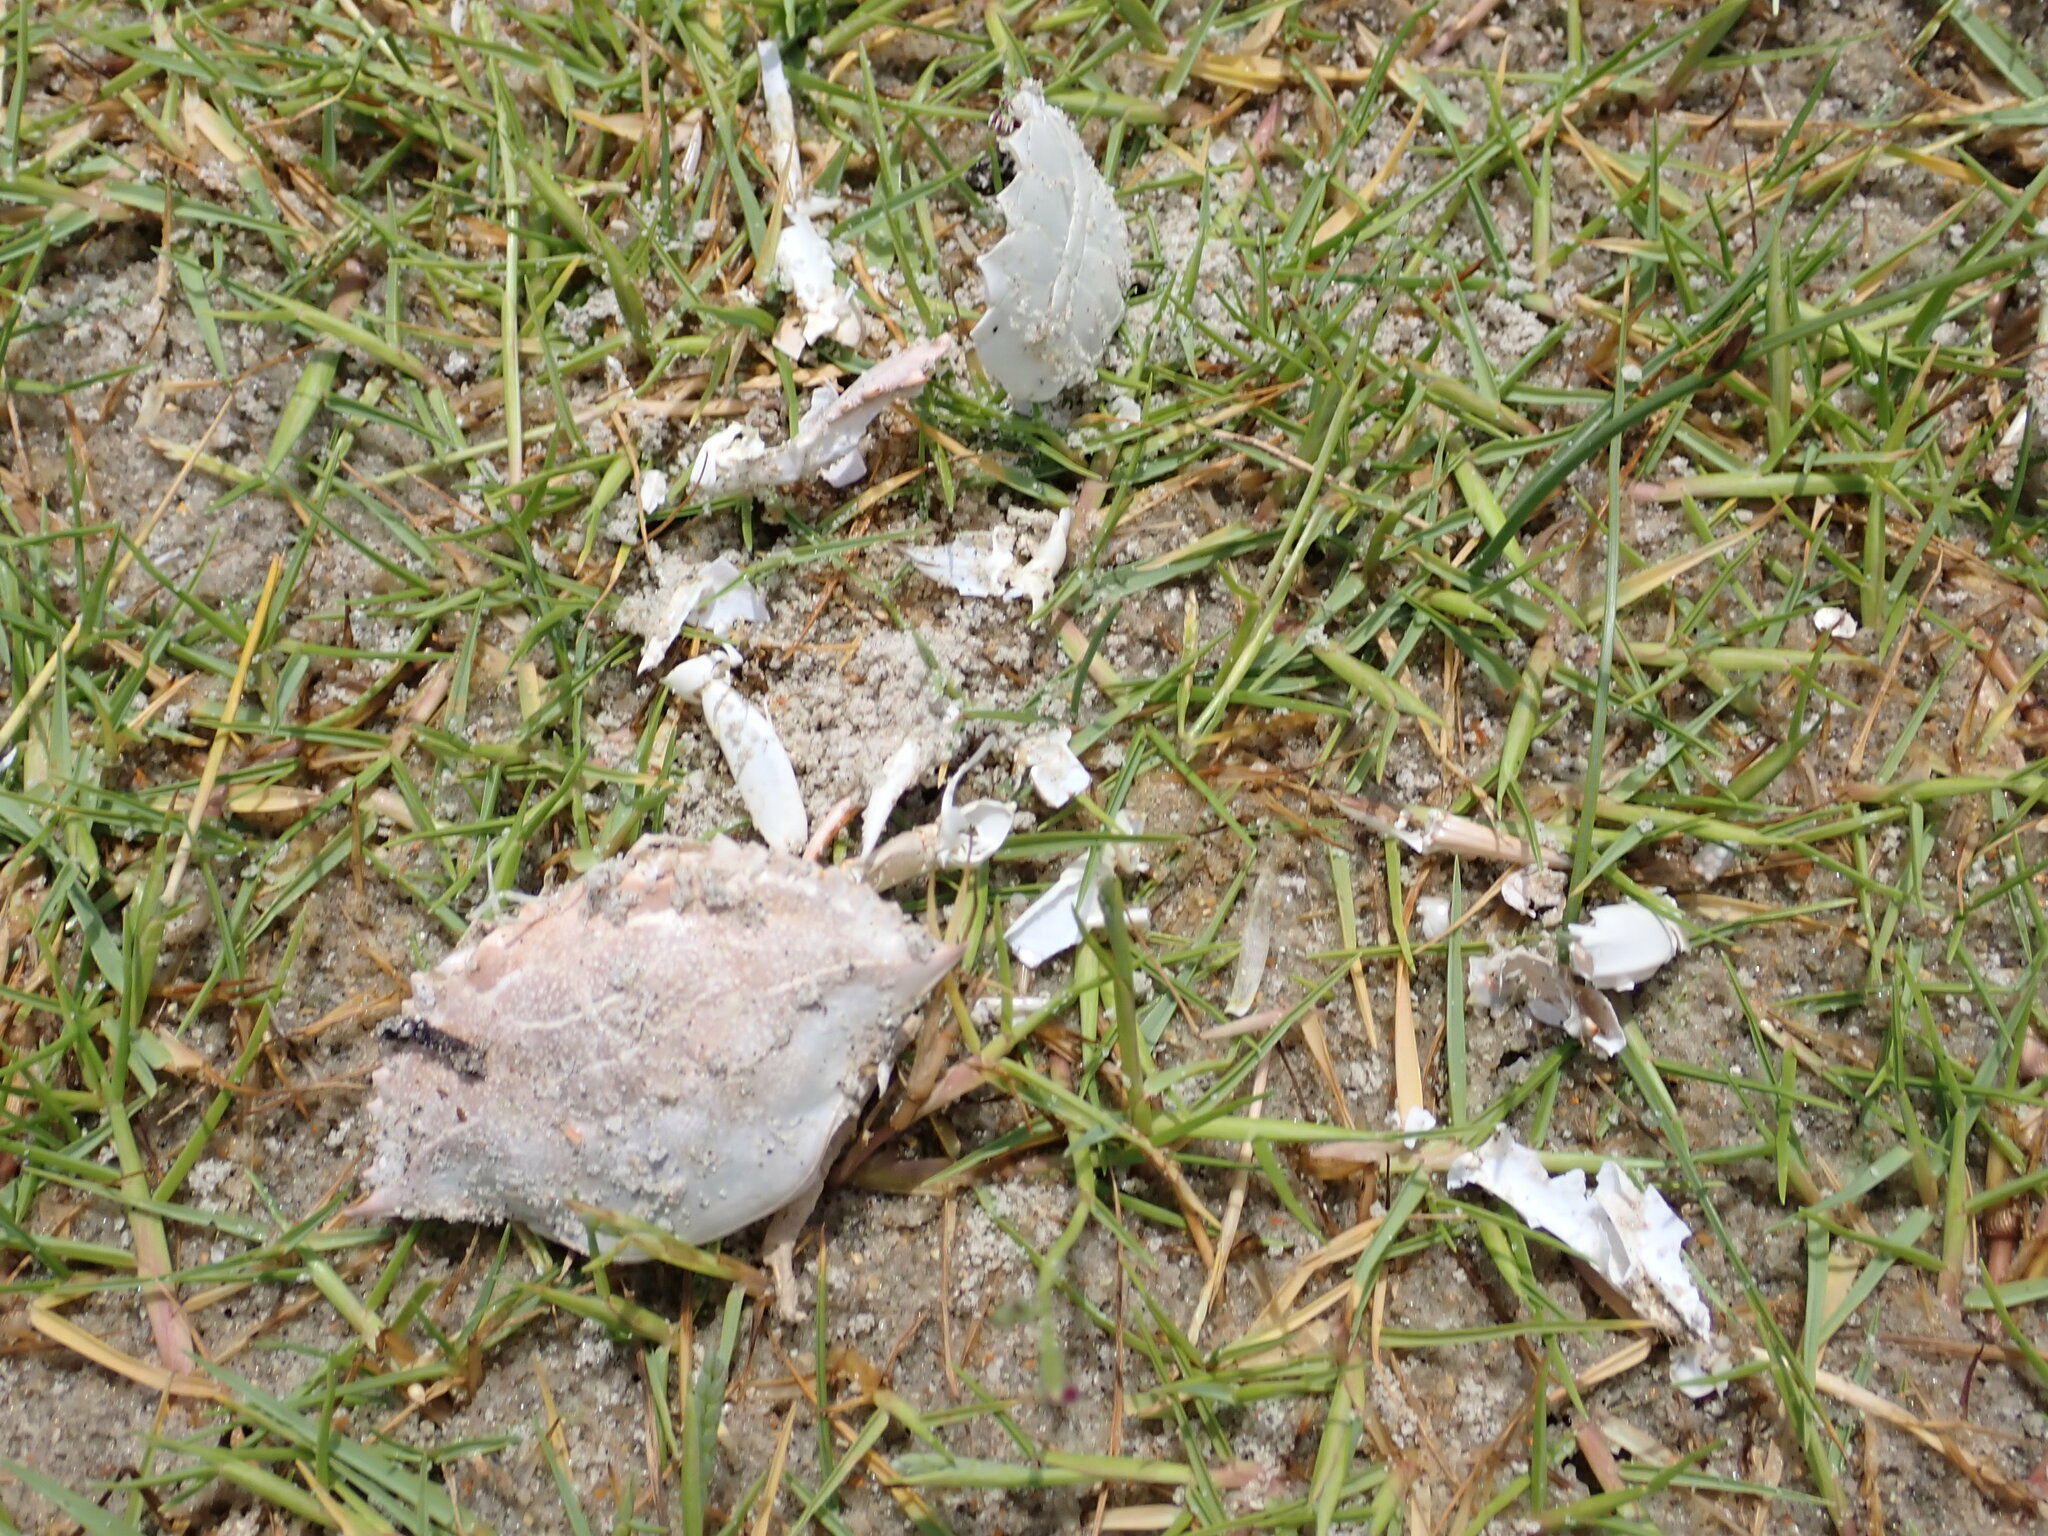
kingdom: Animalia
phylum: Arthropoda
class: Malacostraca
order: Decapoda
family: Portunidae
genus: Callinectes
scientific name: Callinectes sapidus
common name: Blue crab
